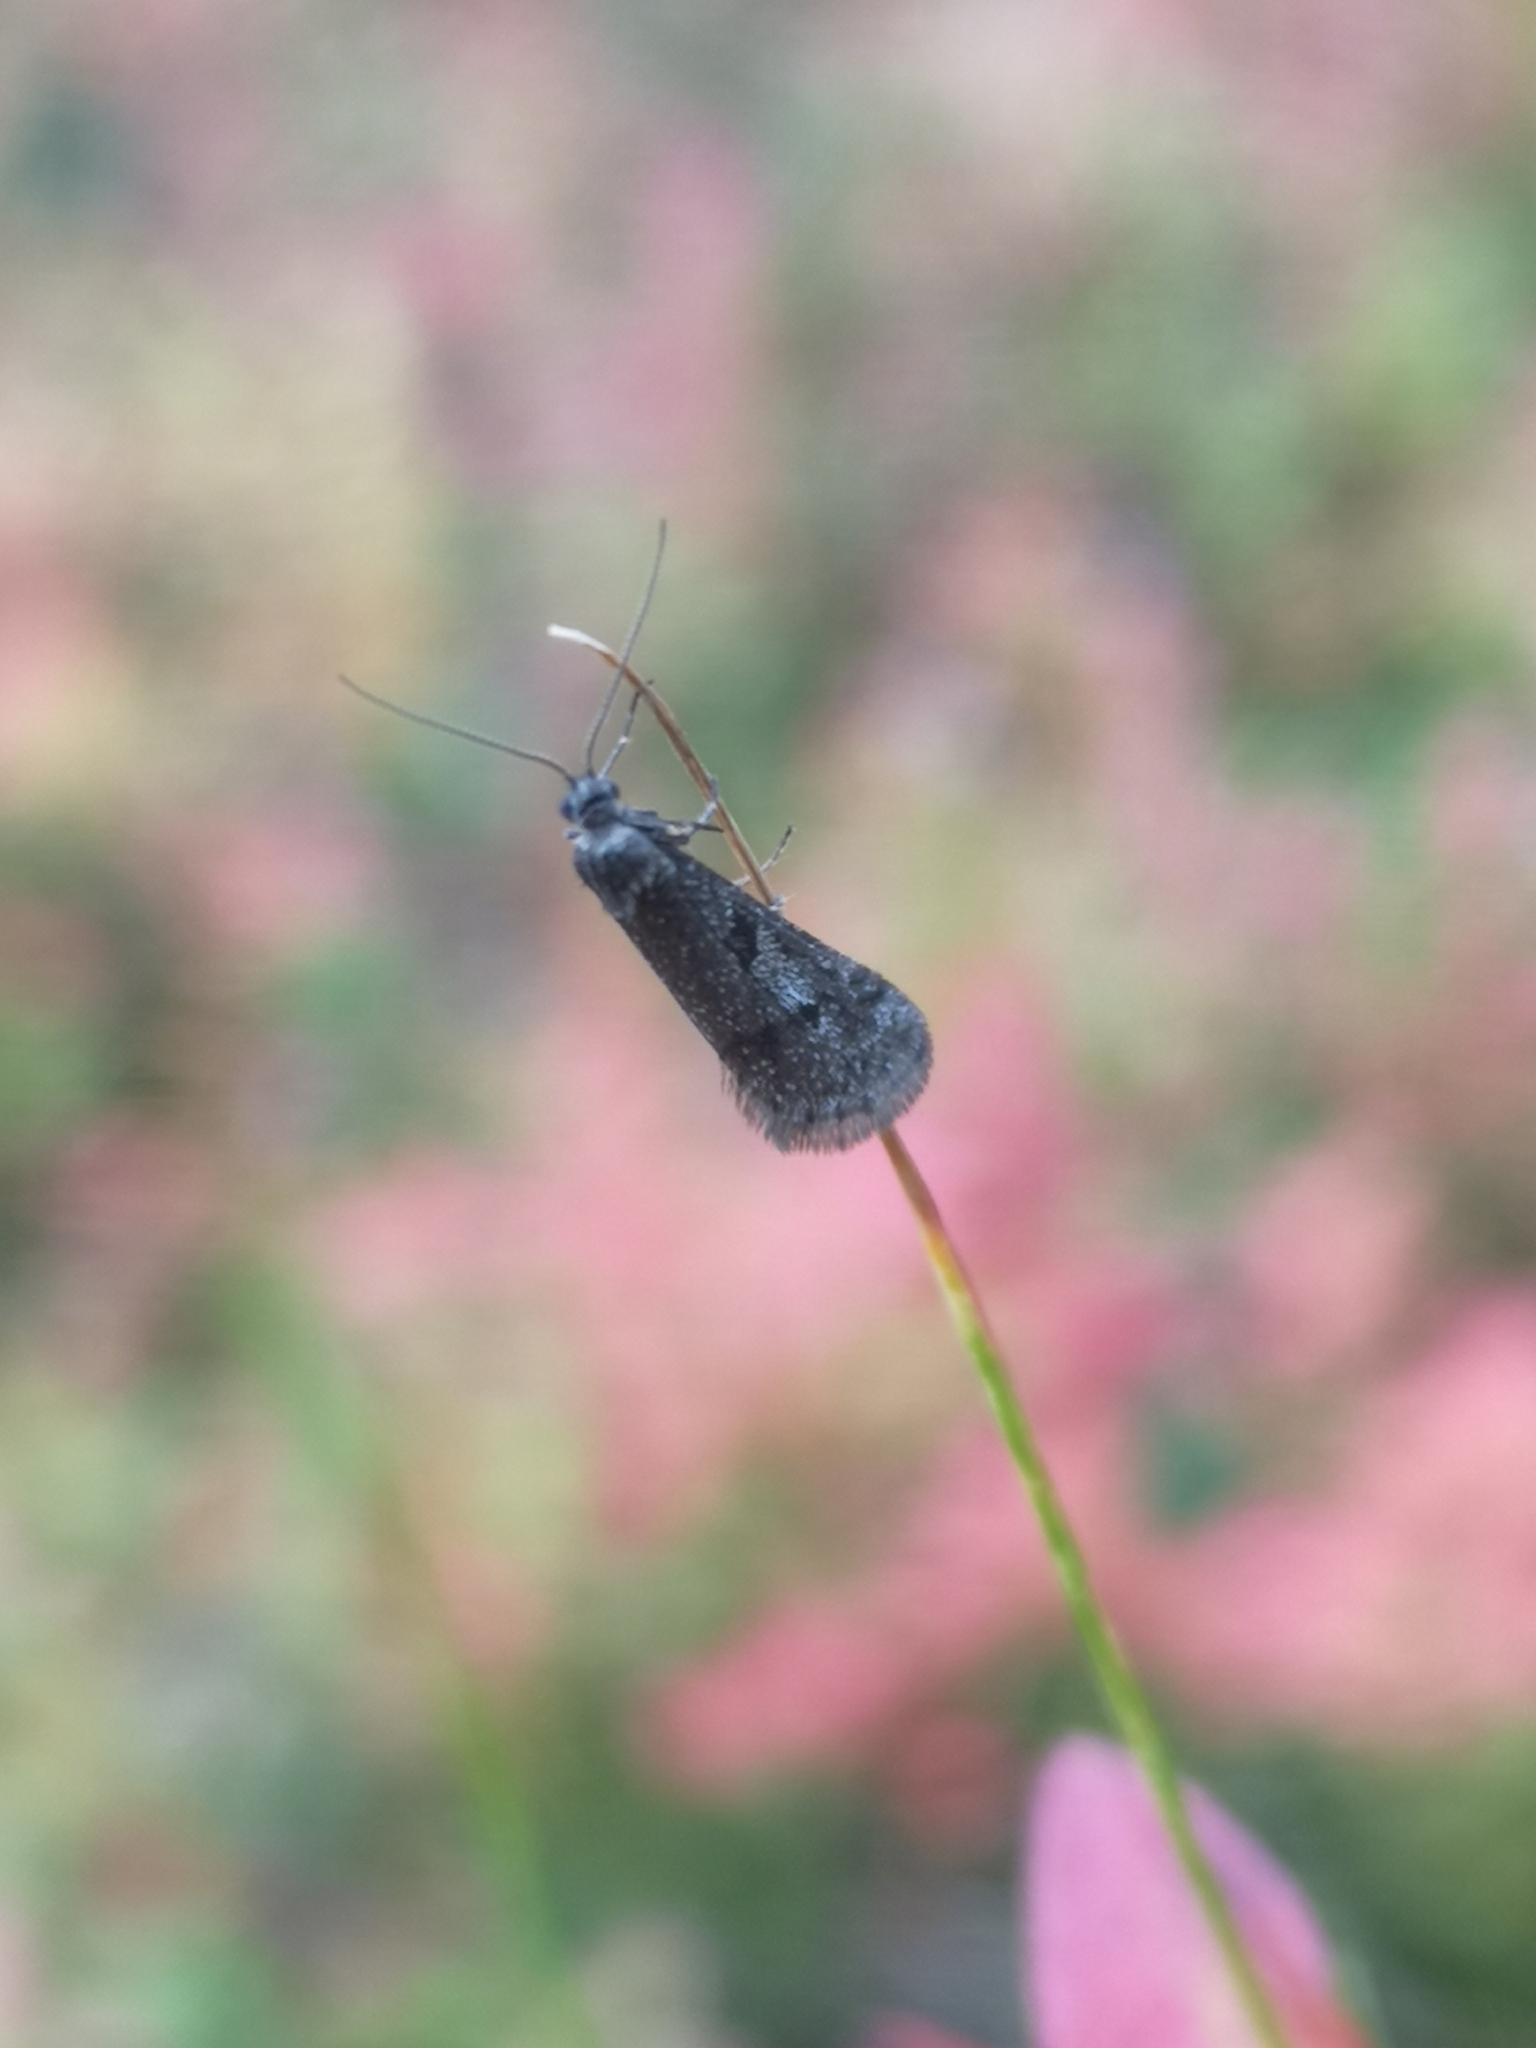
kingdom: Animalia
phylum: Arthropoda
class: Insecta
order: Lepidoptera
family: Tortricidae
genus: Exapate
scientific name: Exapate congelatella
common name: Autumnal shade
